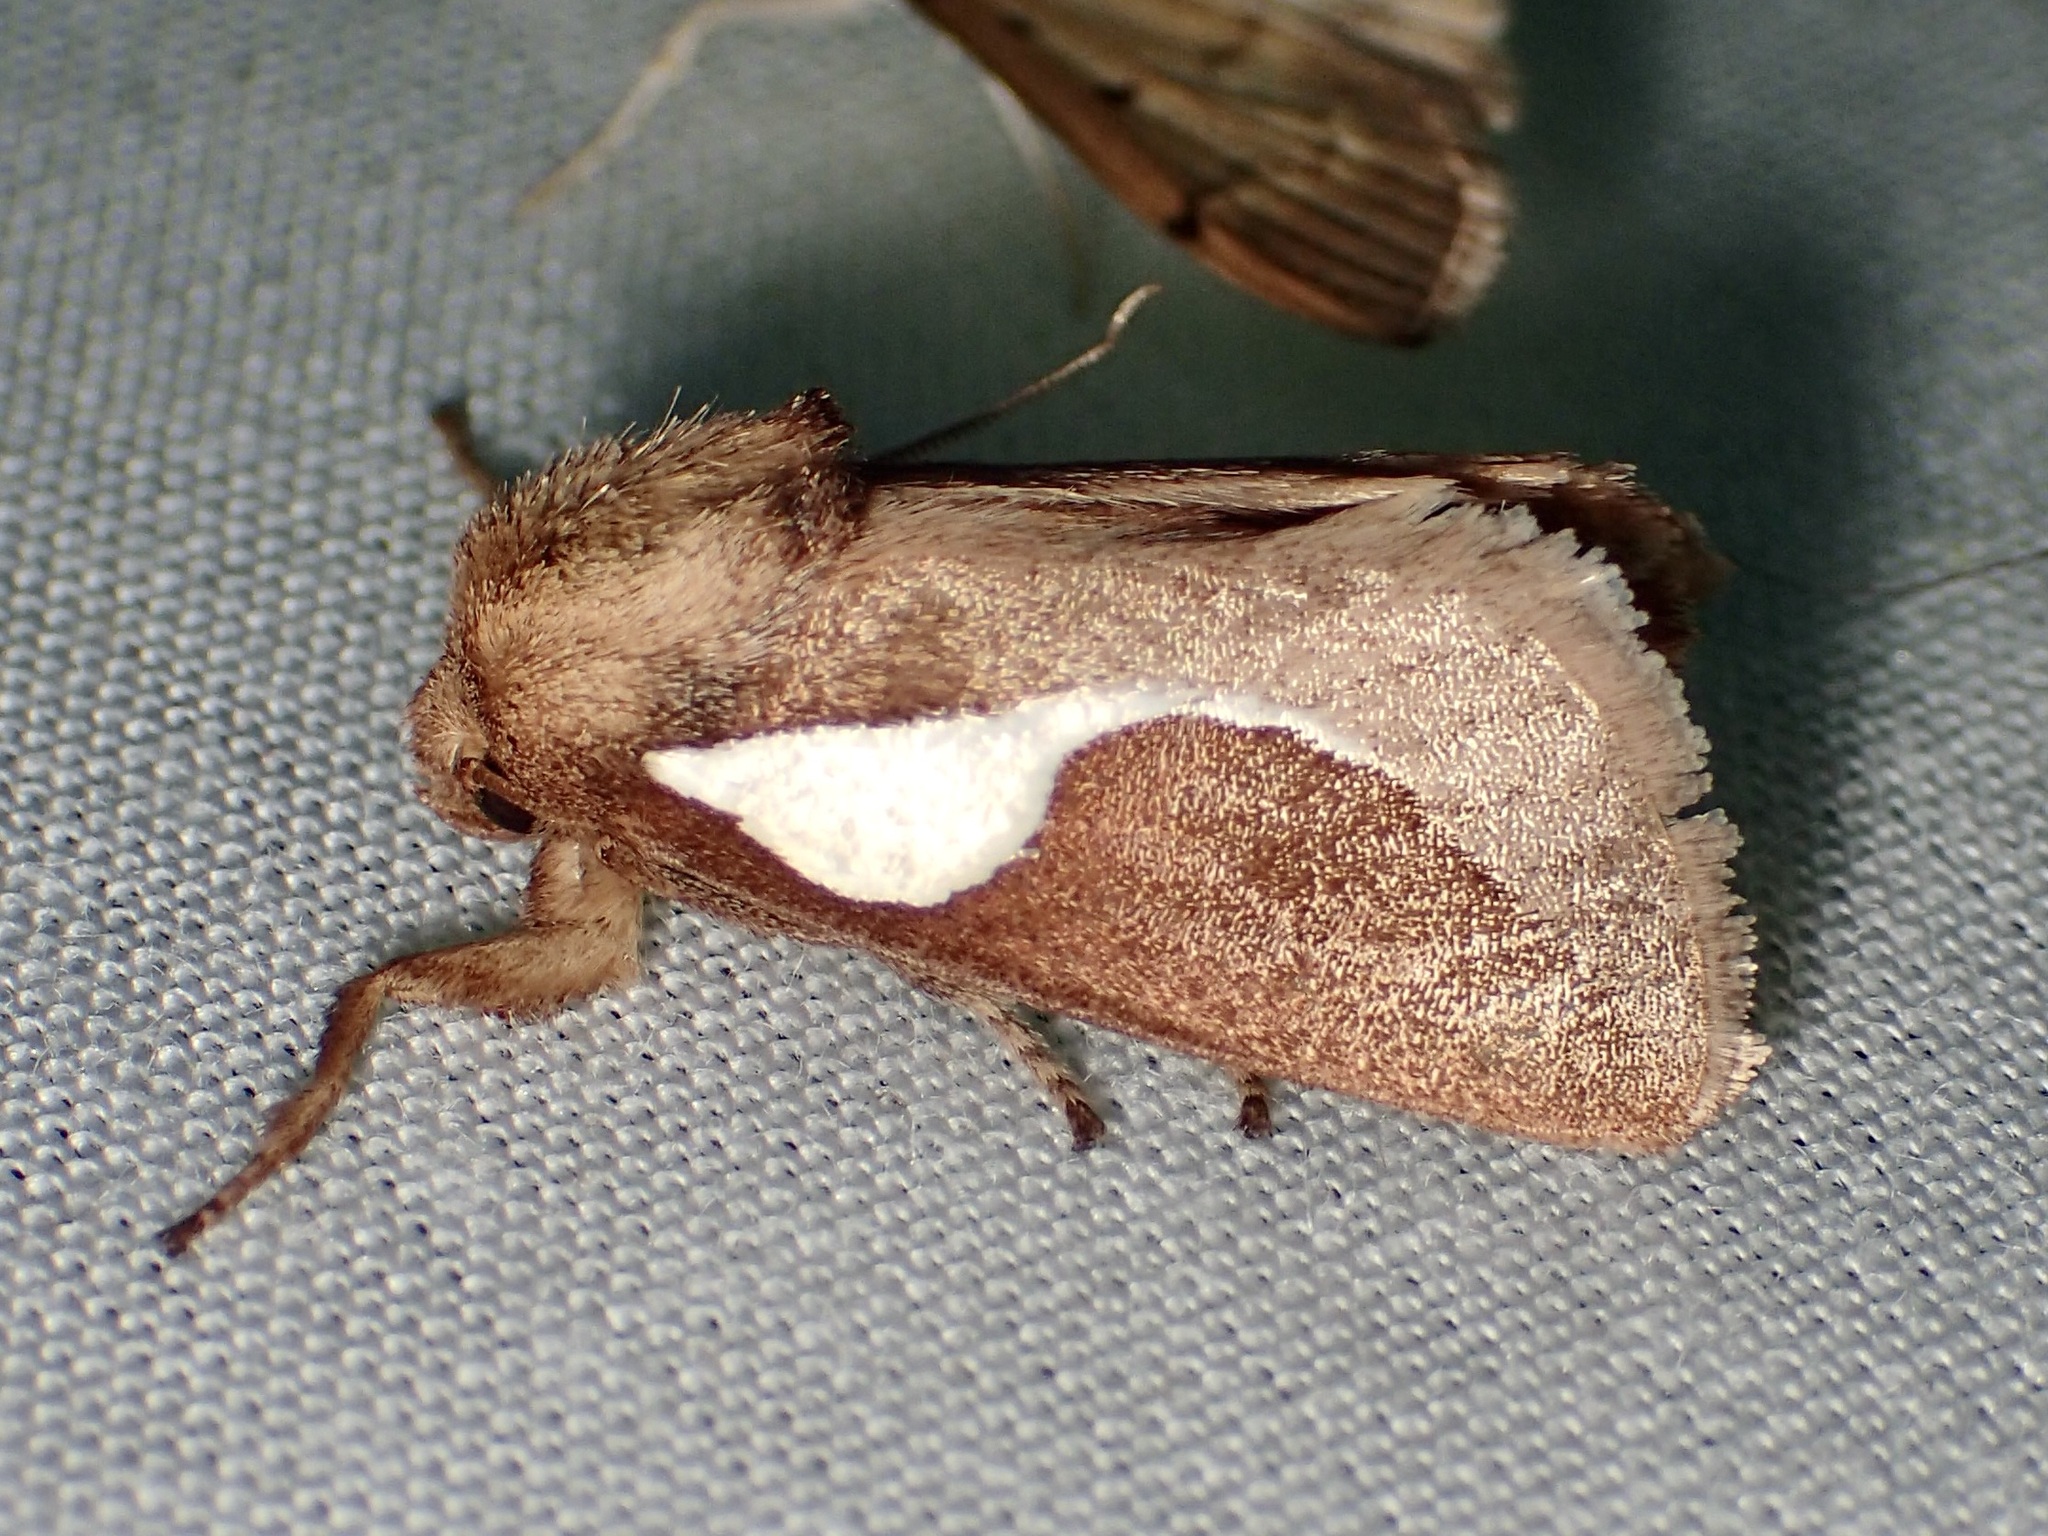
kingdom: Animalia
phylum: Arthropoda
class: Insecta
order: Lepidoptera
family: Limacodidae
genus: Prolimacodes
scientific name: Prolimacodes trigona
